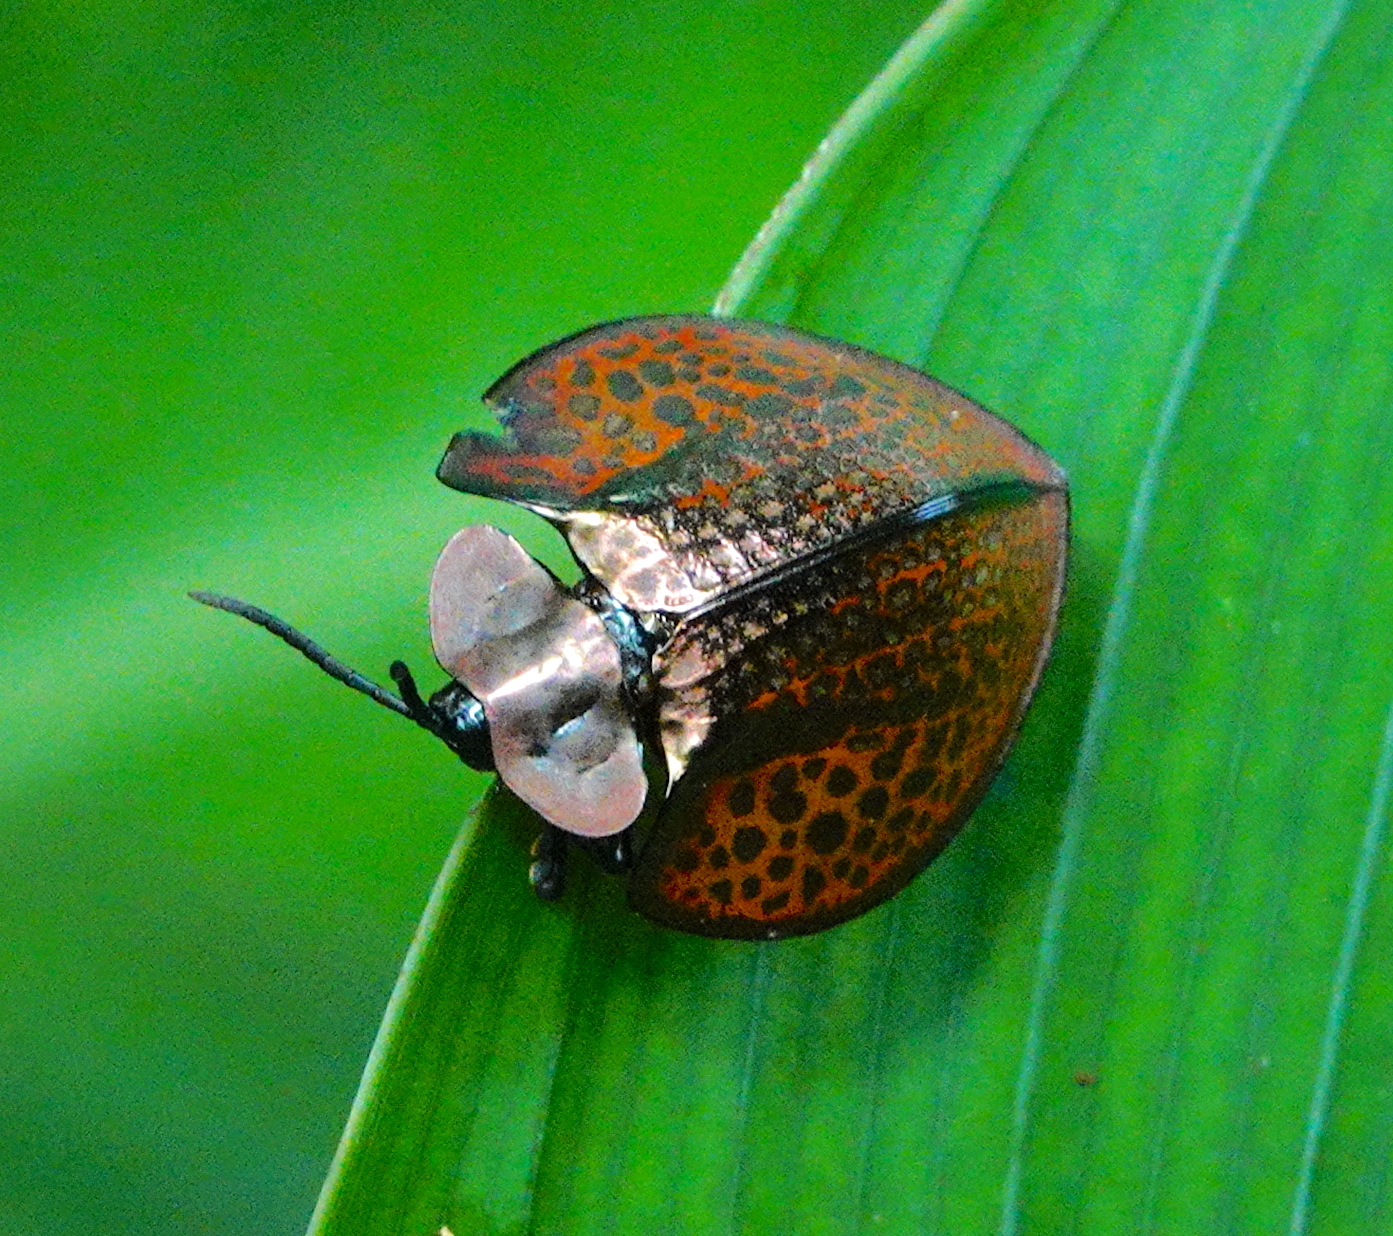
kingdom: Animalia
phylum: Arthropoda
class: Insecta
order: Coleoptera
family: Chrysomelidae
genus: Eugenysa
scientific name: Eugenysa cuprifulgens
